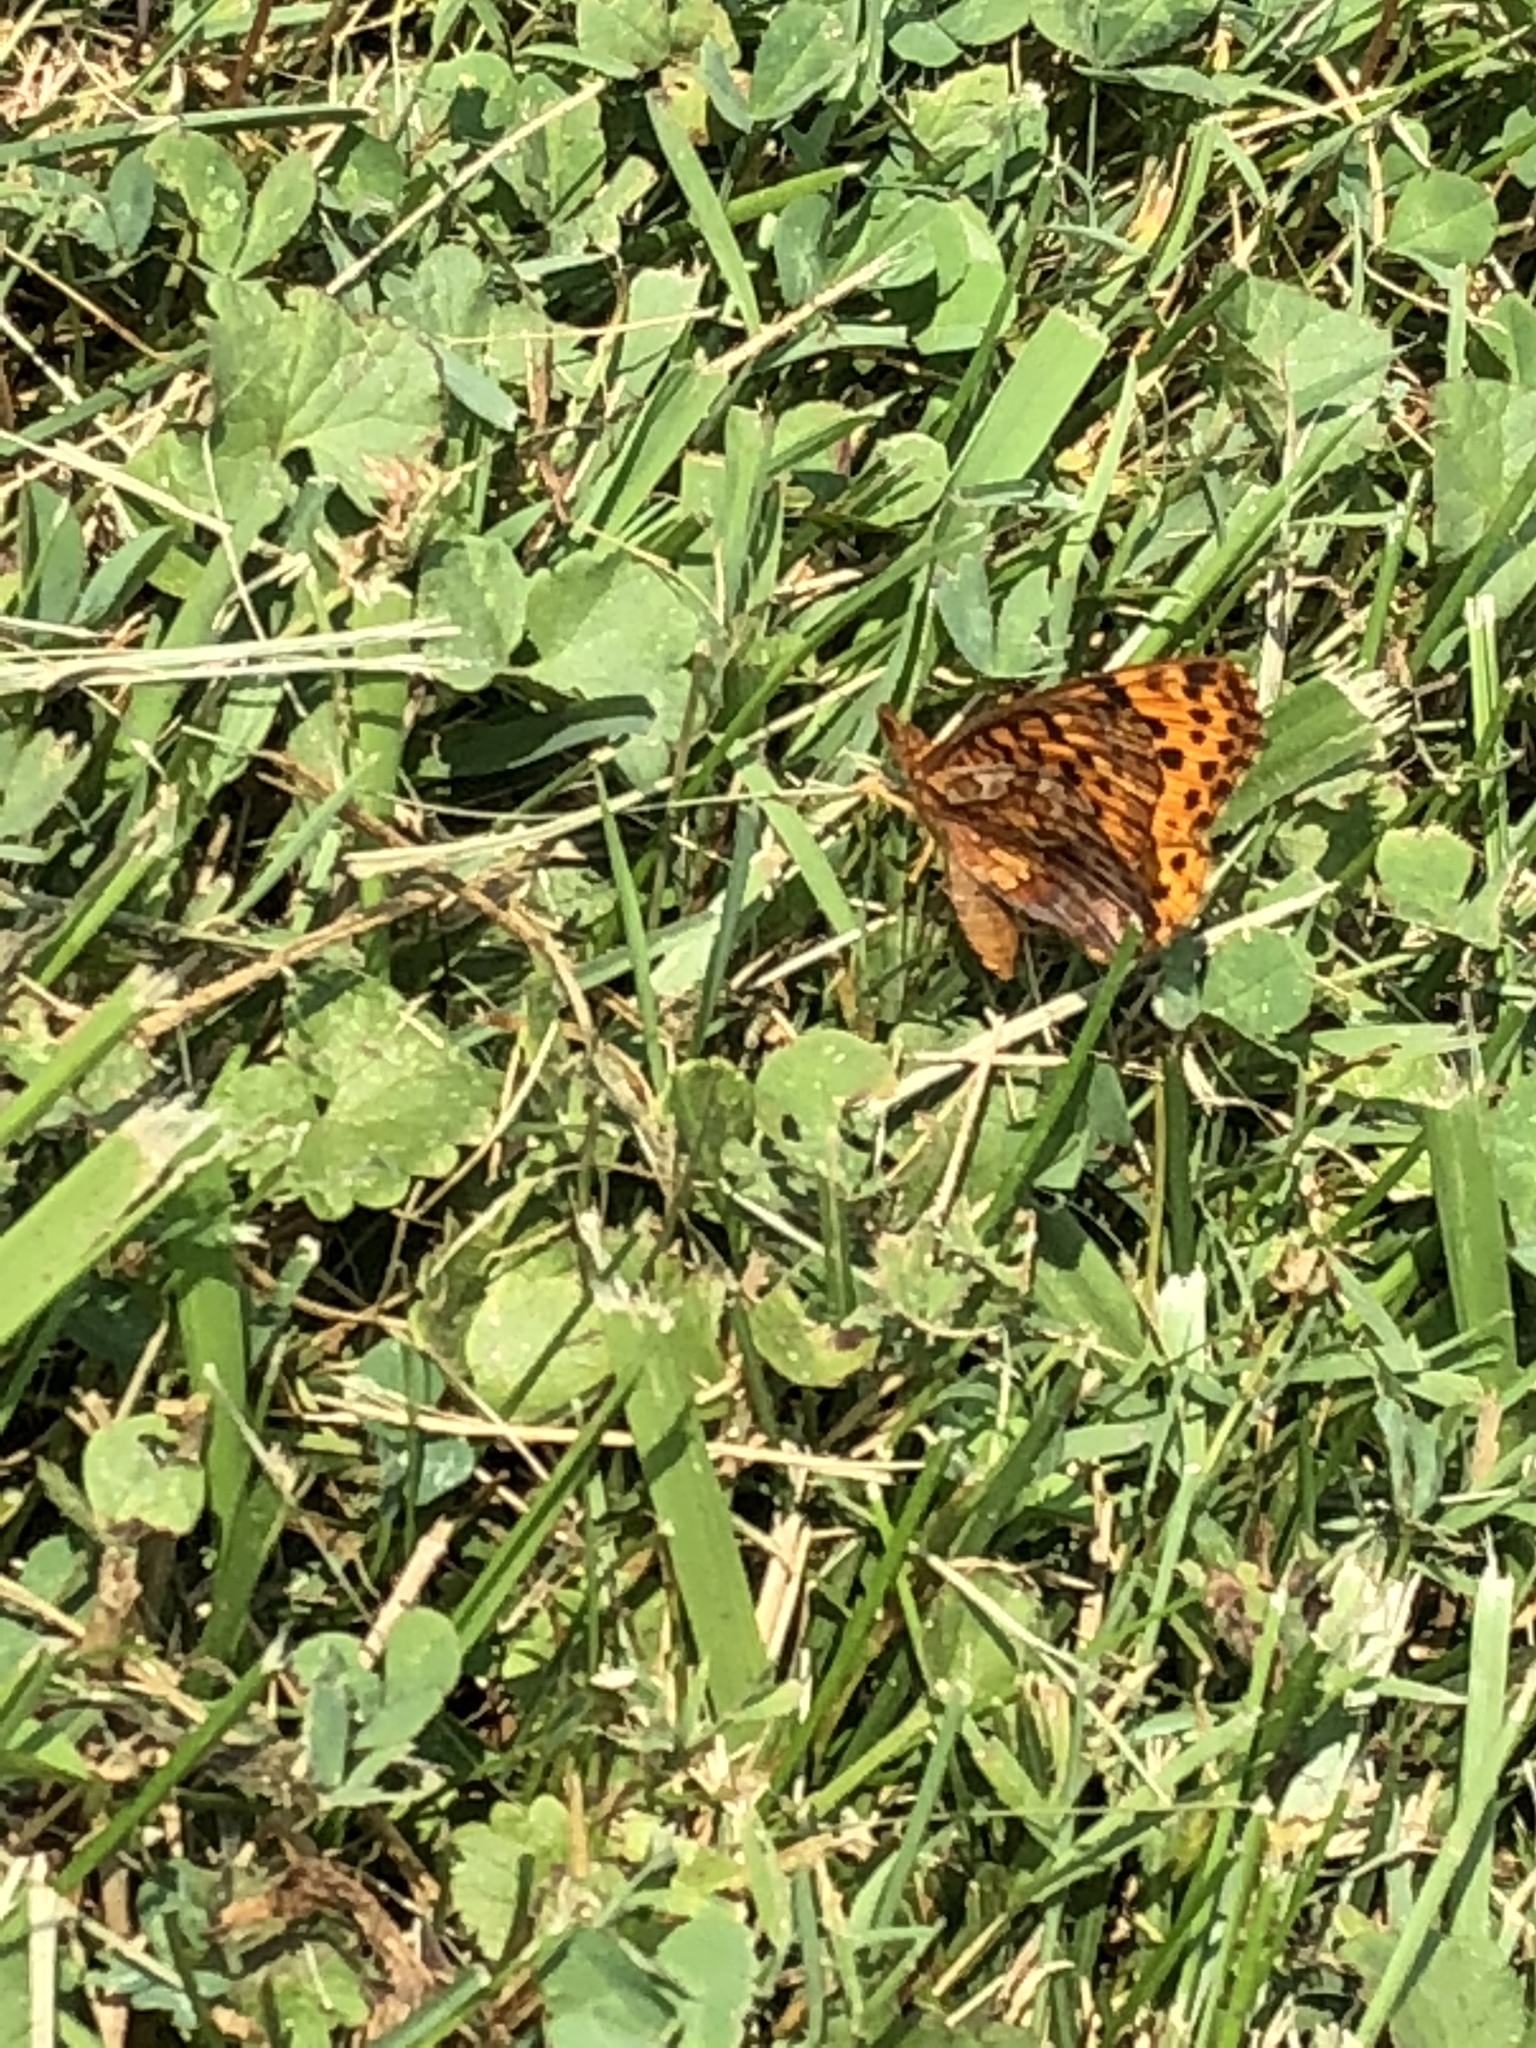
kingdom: Animalia
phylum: Arthropoda
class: Insecta
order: Lepidoptera
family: Nymphalidae
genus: Clossiana
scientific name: Clossiana toddi
